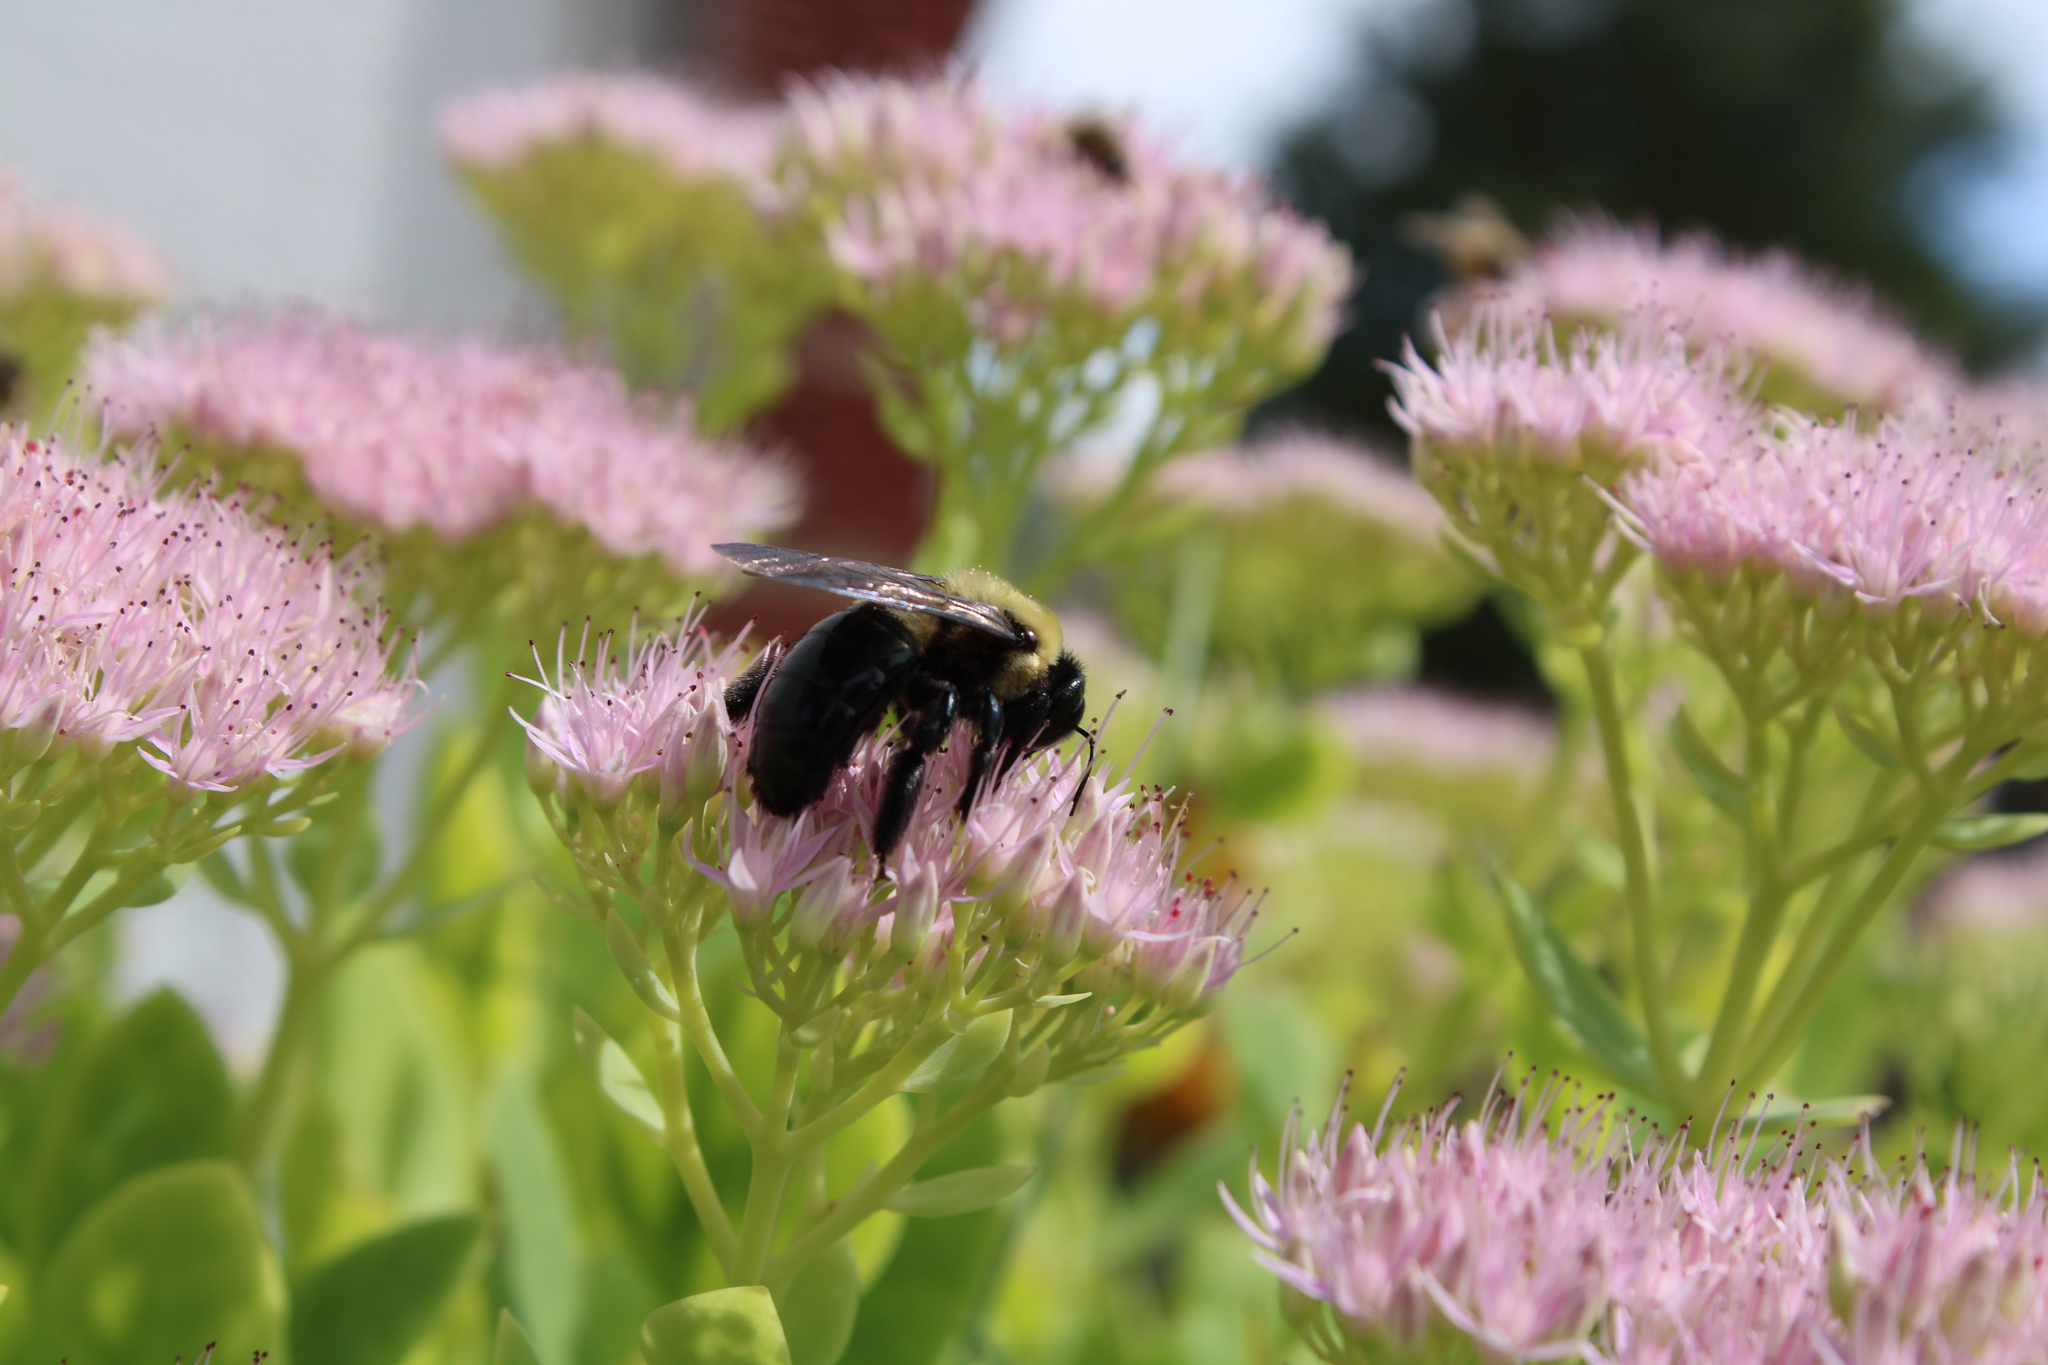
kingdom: Animalia
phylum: Arthropoda
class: Insecta
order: Hymenoptera
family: Apidae
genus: Xylocopa
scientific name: Xylocopa virginica
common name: Carpenter bee
